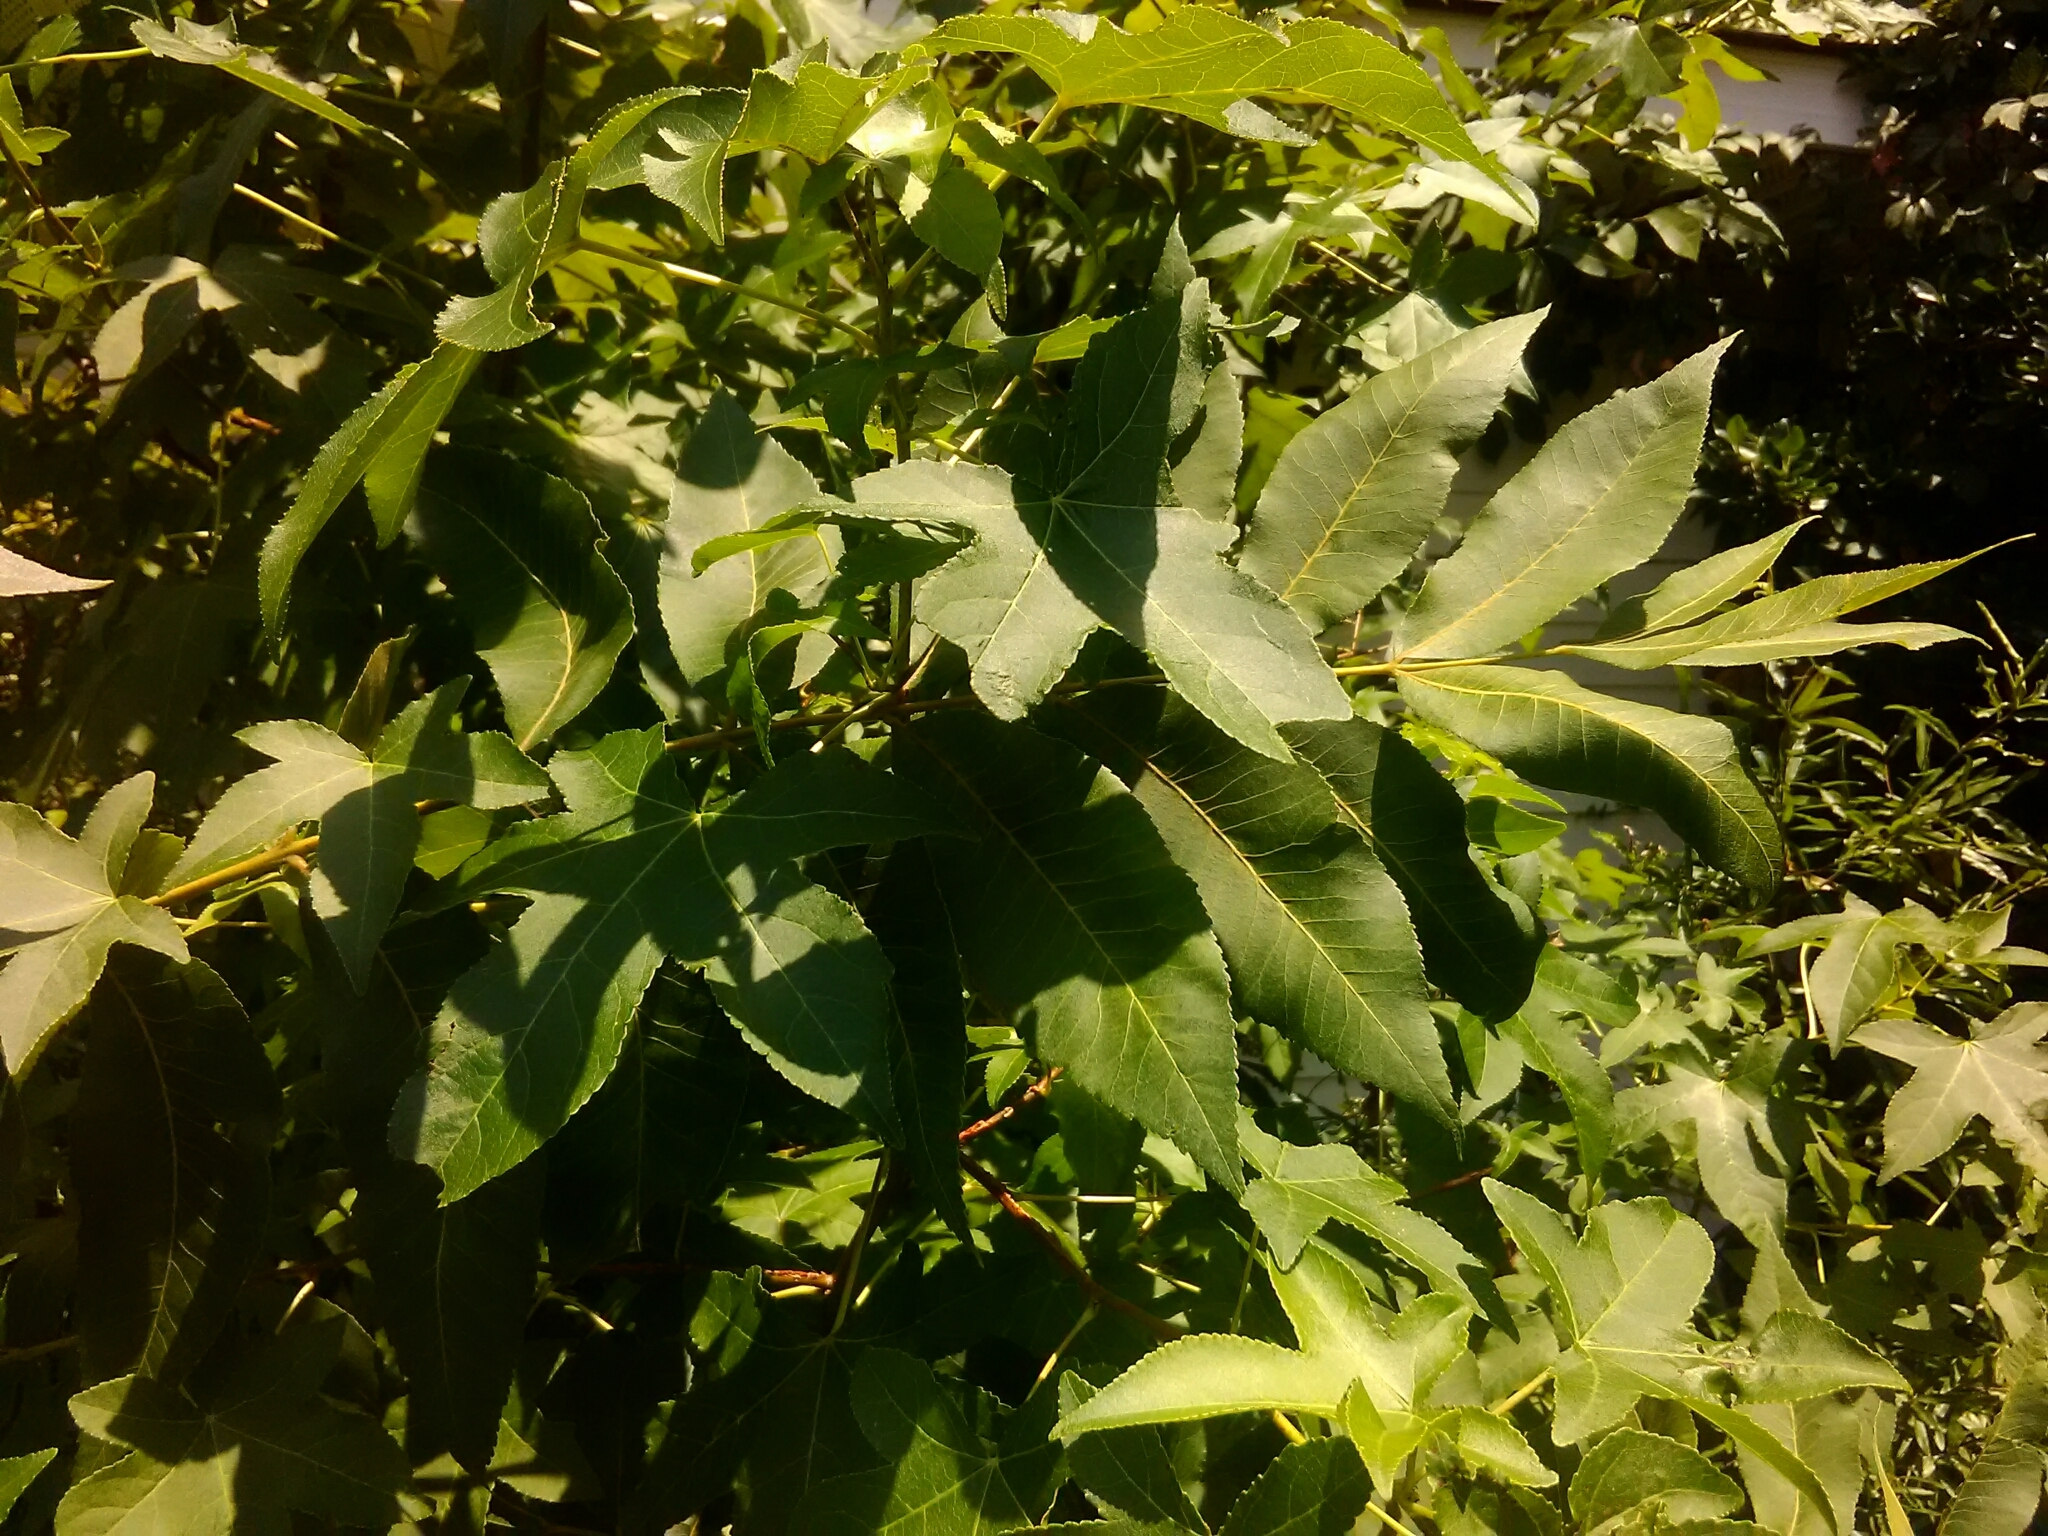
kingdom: Plantae
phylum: Tracheophyta
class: Magnoliopsida
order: Saxifragales
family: Altingiaceae
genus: Liquidambar
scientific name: Liquidambar styraciflua
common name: Sweet gum
